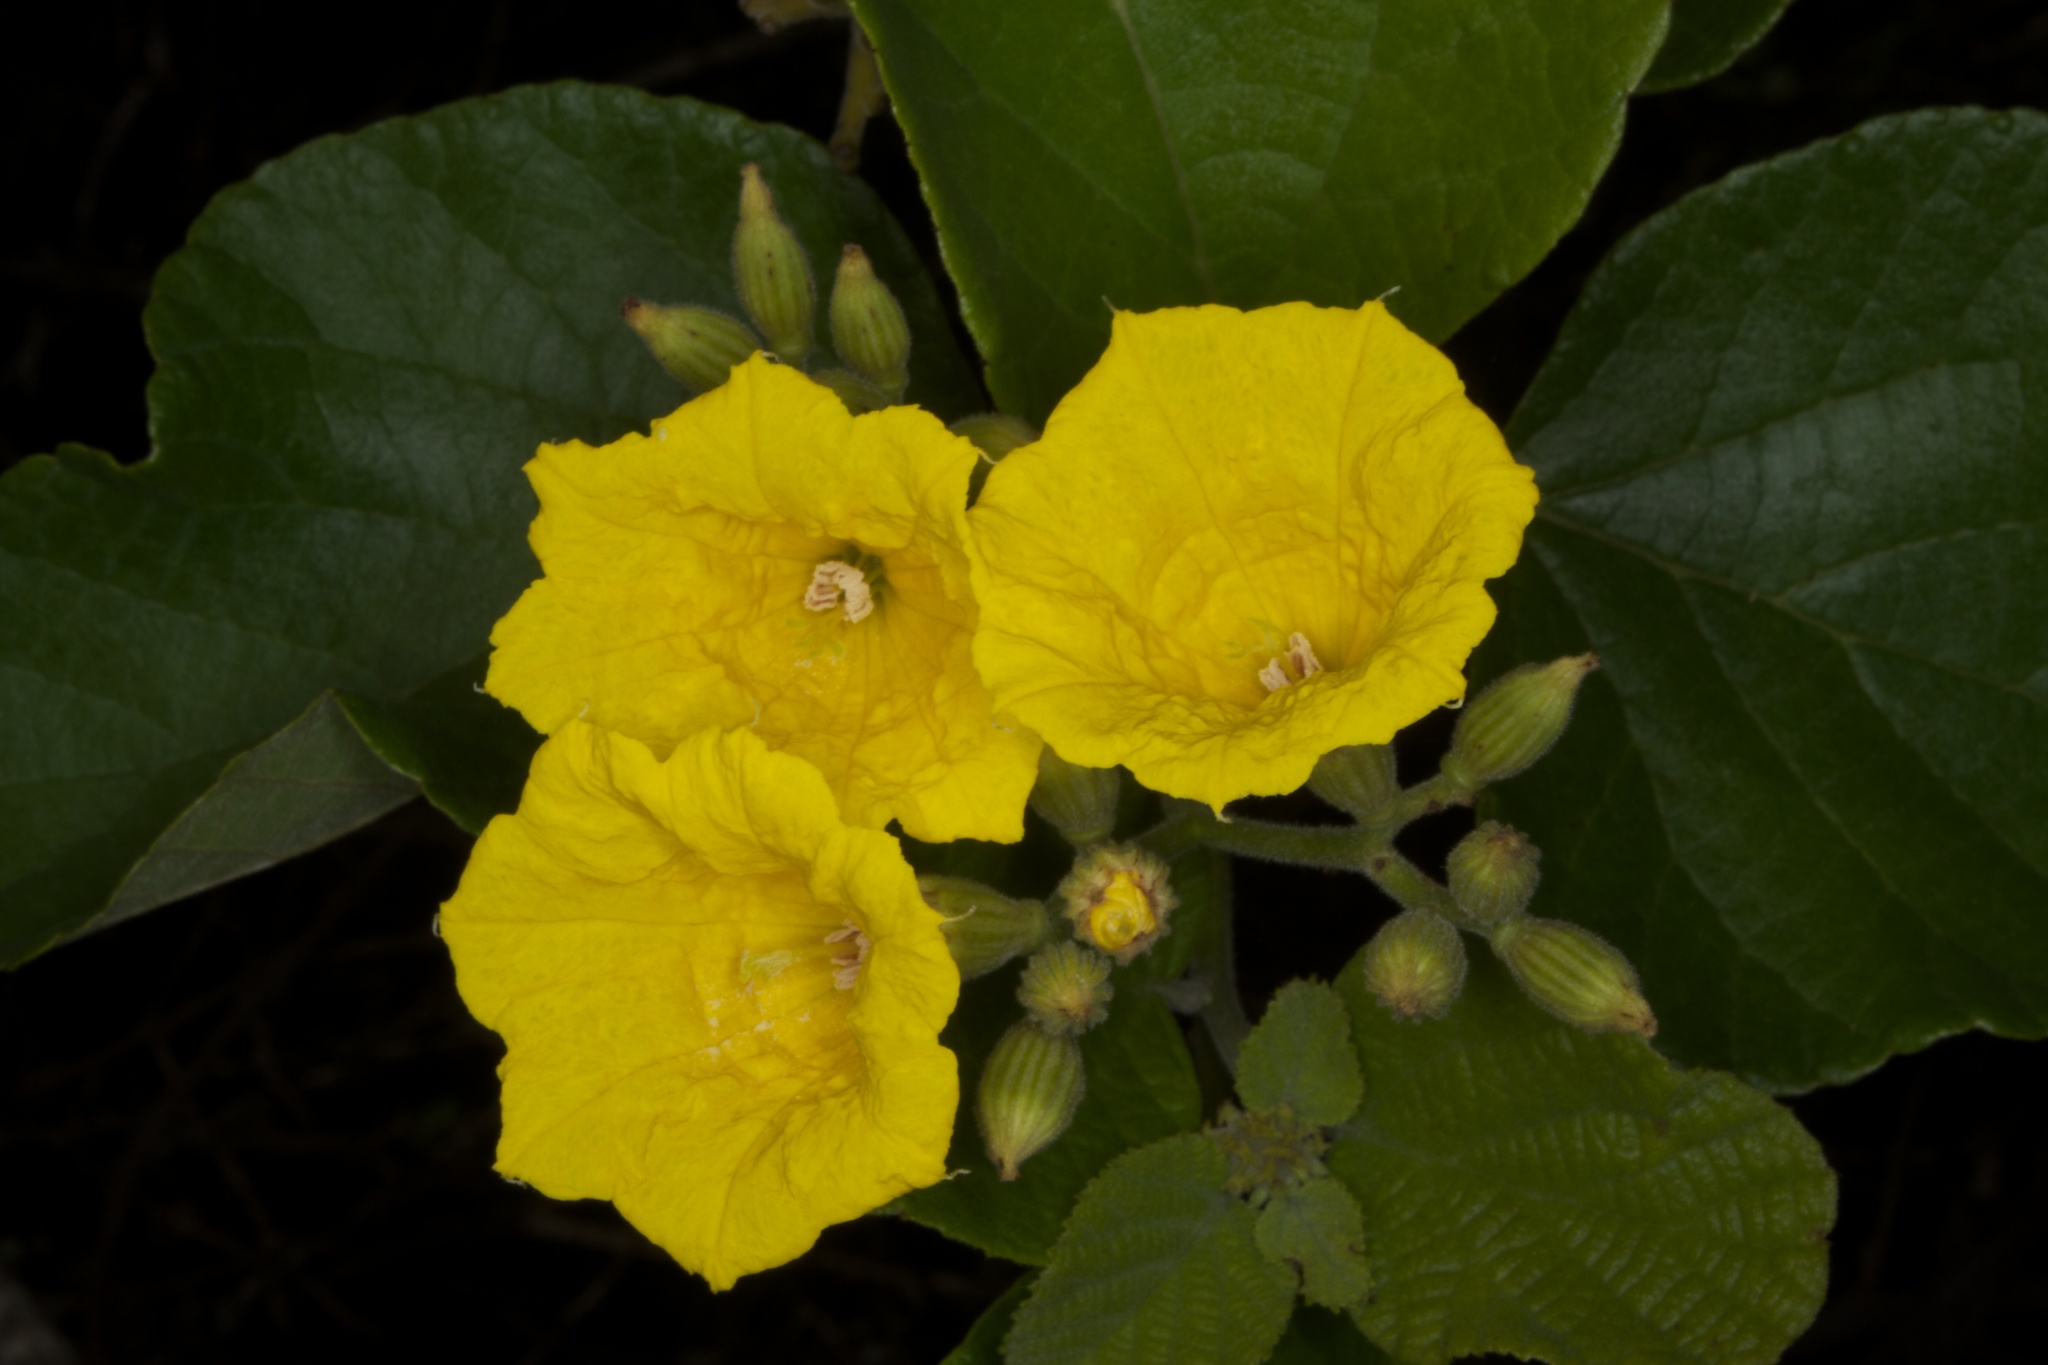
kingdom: Plantae
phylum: Tracheophyta
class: Magnoliopsida
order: Boraginales
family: Cordiaceae
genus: Cordia
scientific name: Cordia lutea
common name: Yellow geiger
